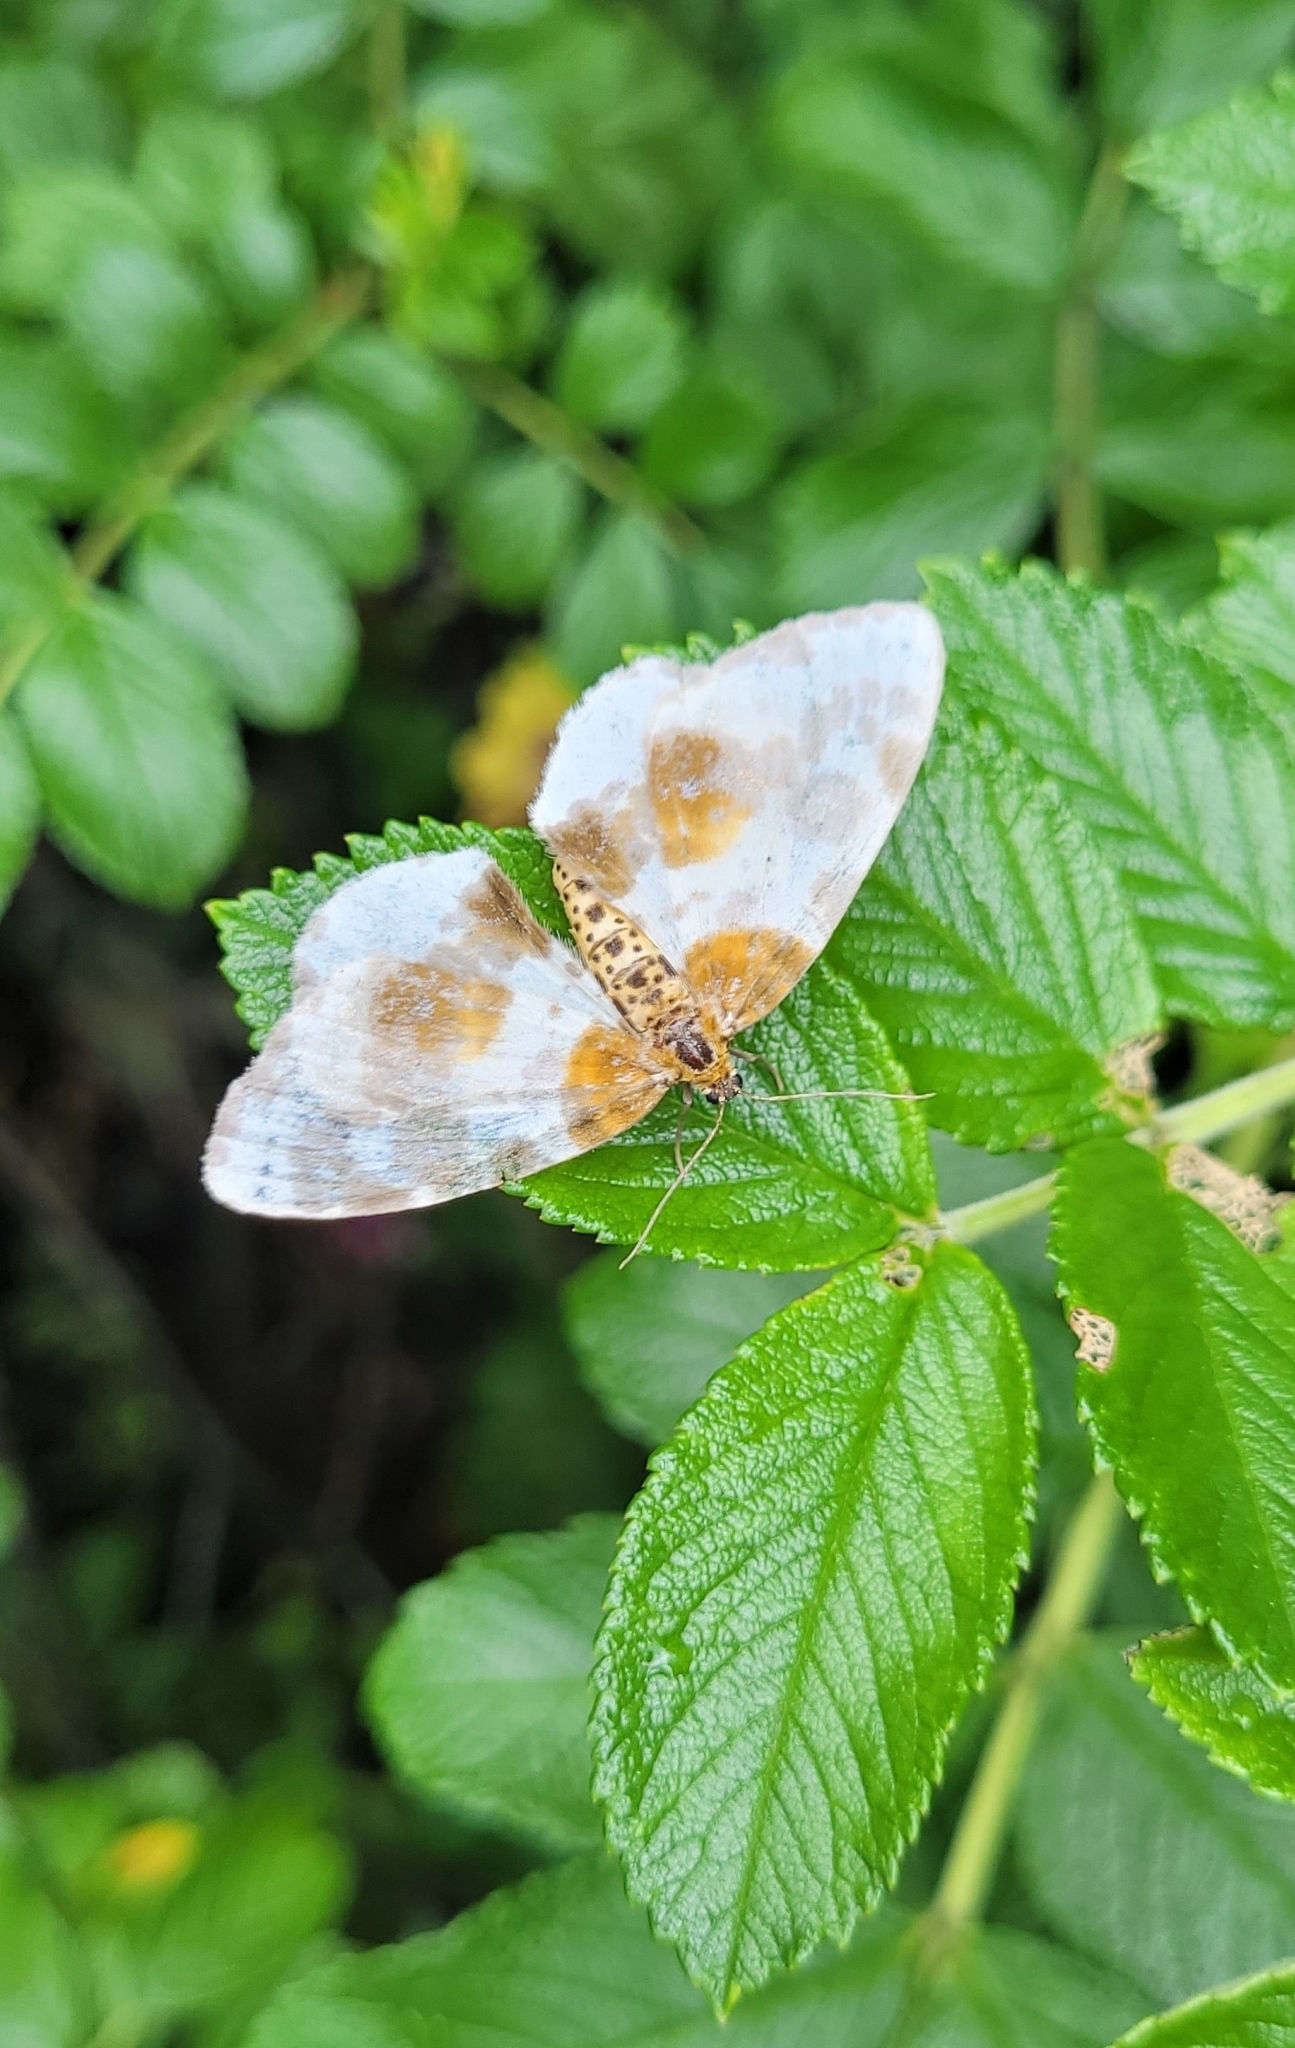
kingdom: Animalia
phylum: Arthropoda
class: Insecta
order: Lepidoptera
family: Geometridae
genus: Abraxas
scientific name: Abraxas sylvata
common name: Clouded magpie
